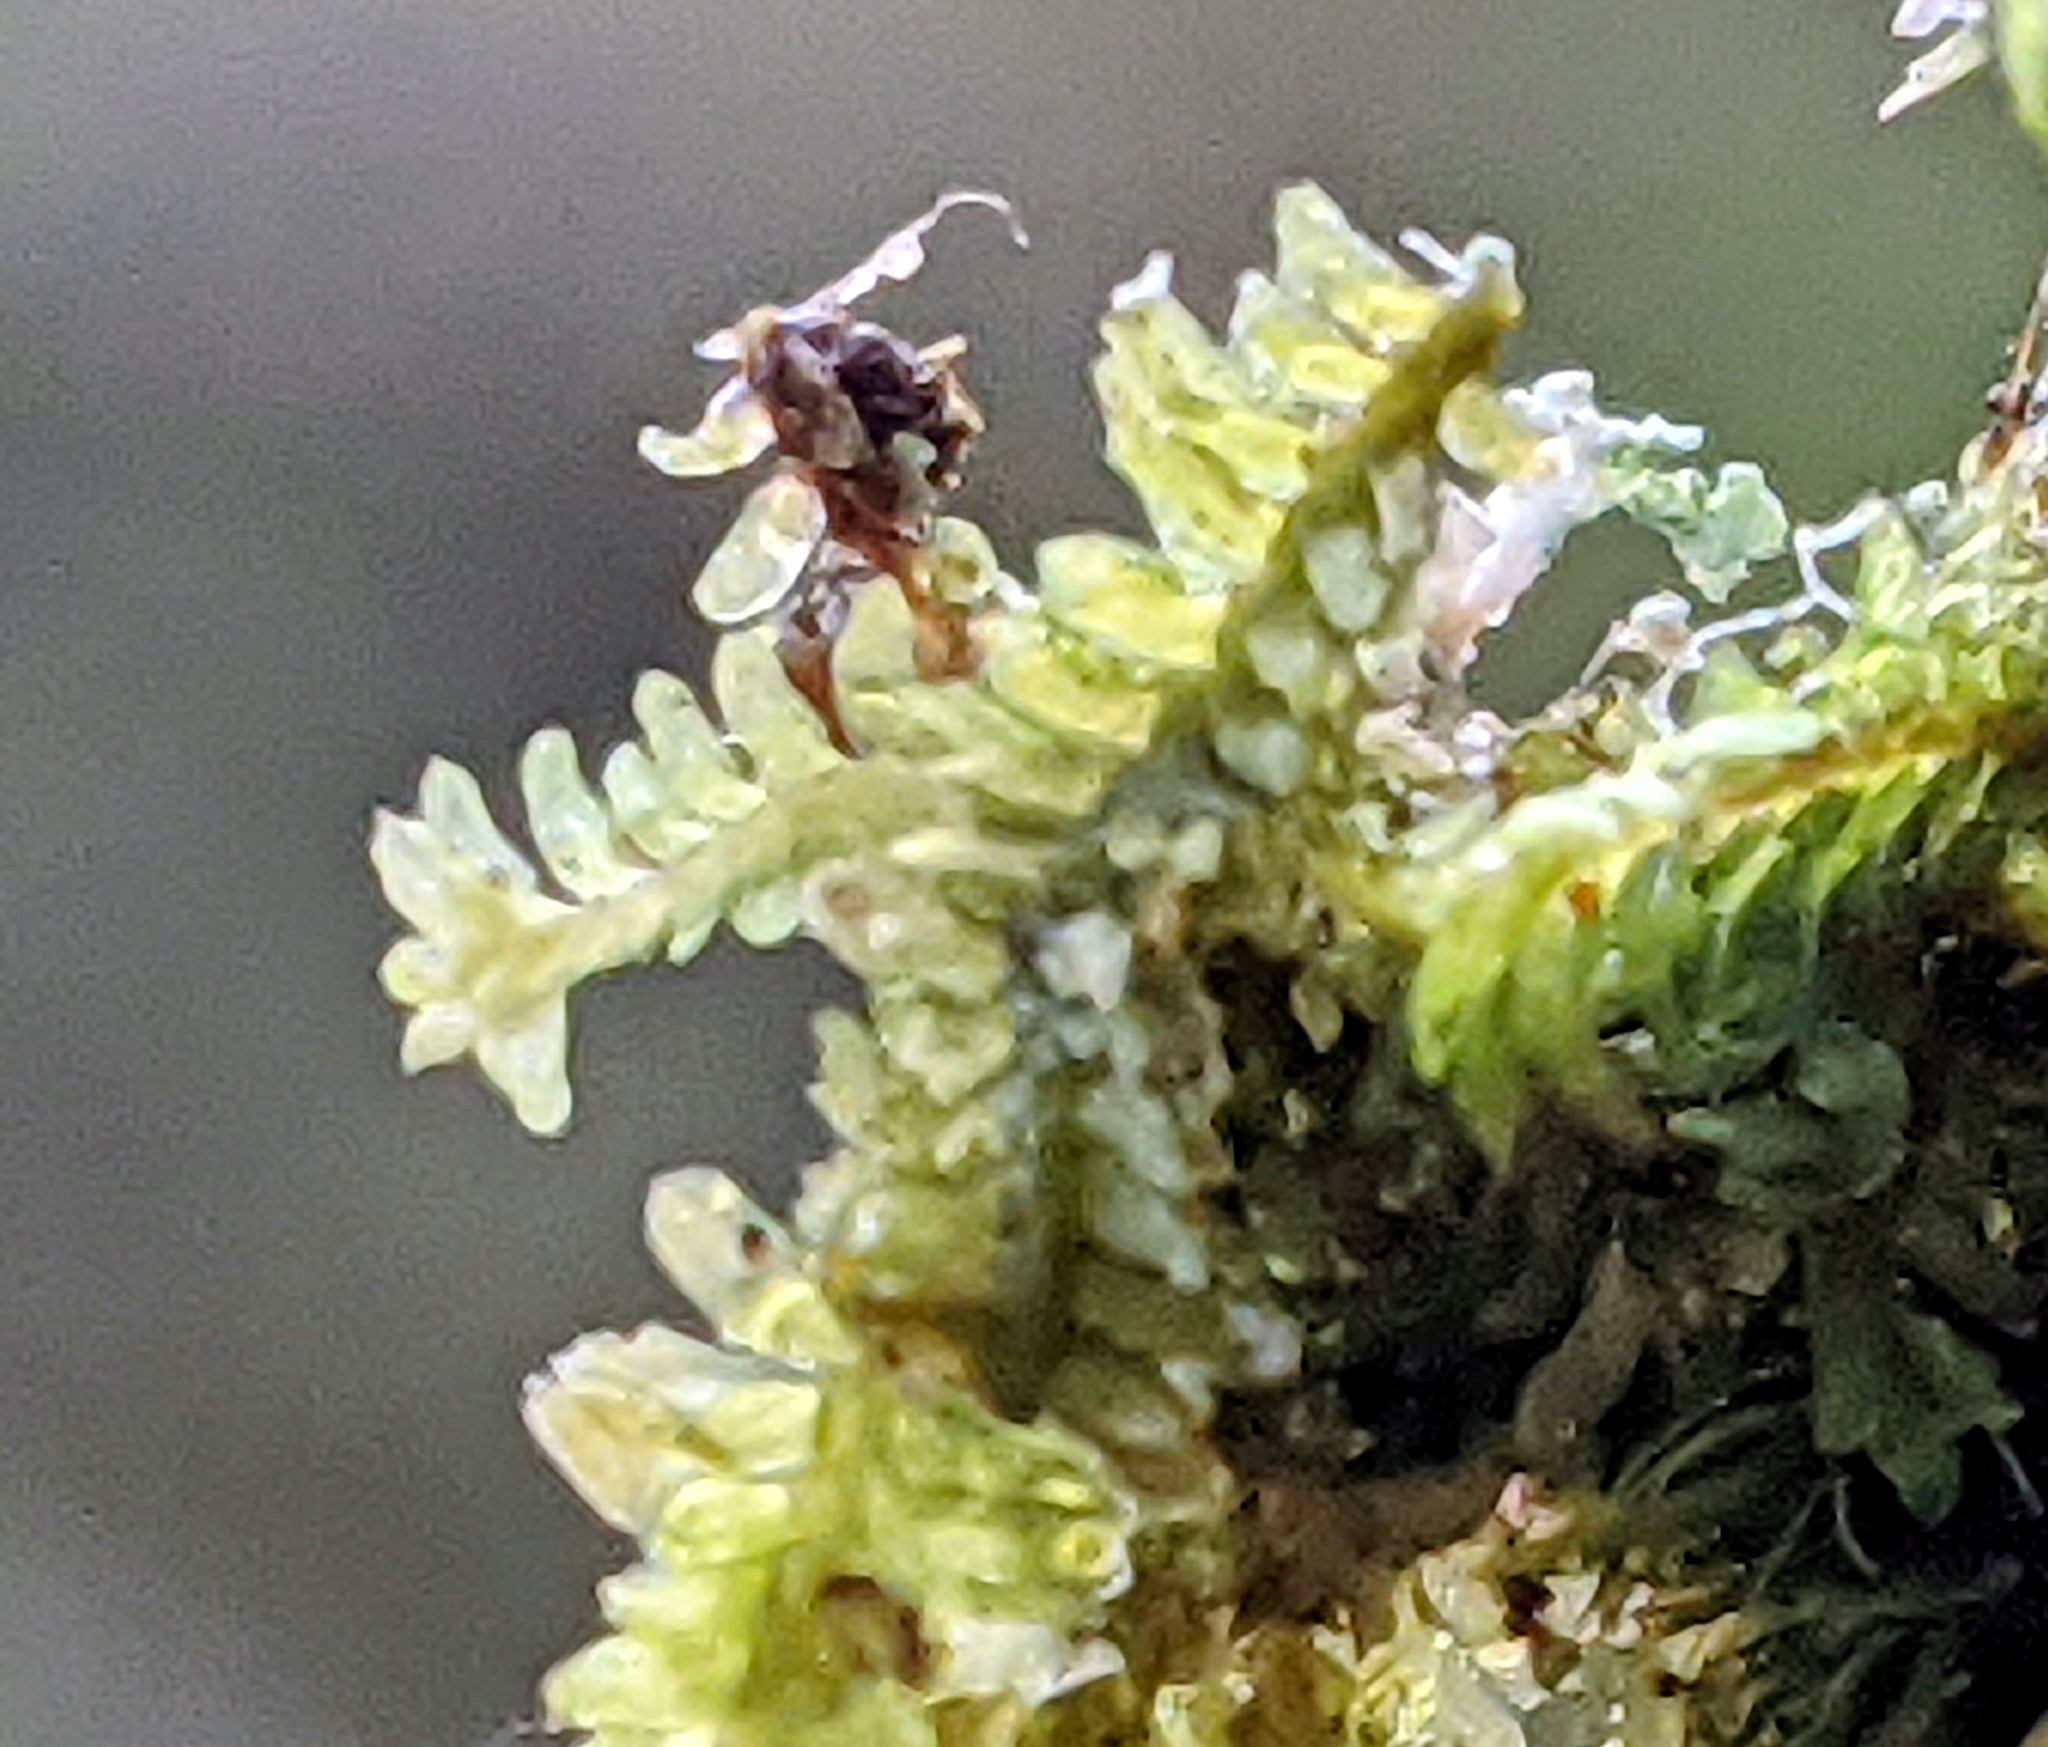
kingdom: Plantae
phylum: Marchantiophyta
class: Jungermanniopsida
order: Jungermanniales
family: Scapaniaceae
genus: Diplophyllum
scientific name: Diplophyllum albicans
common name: White earwort
